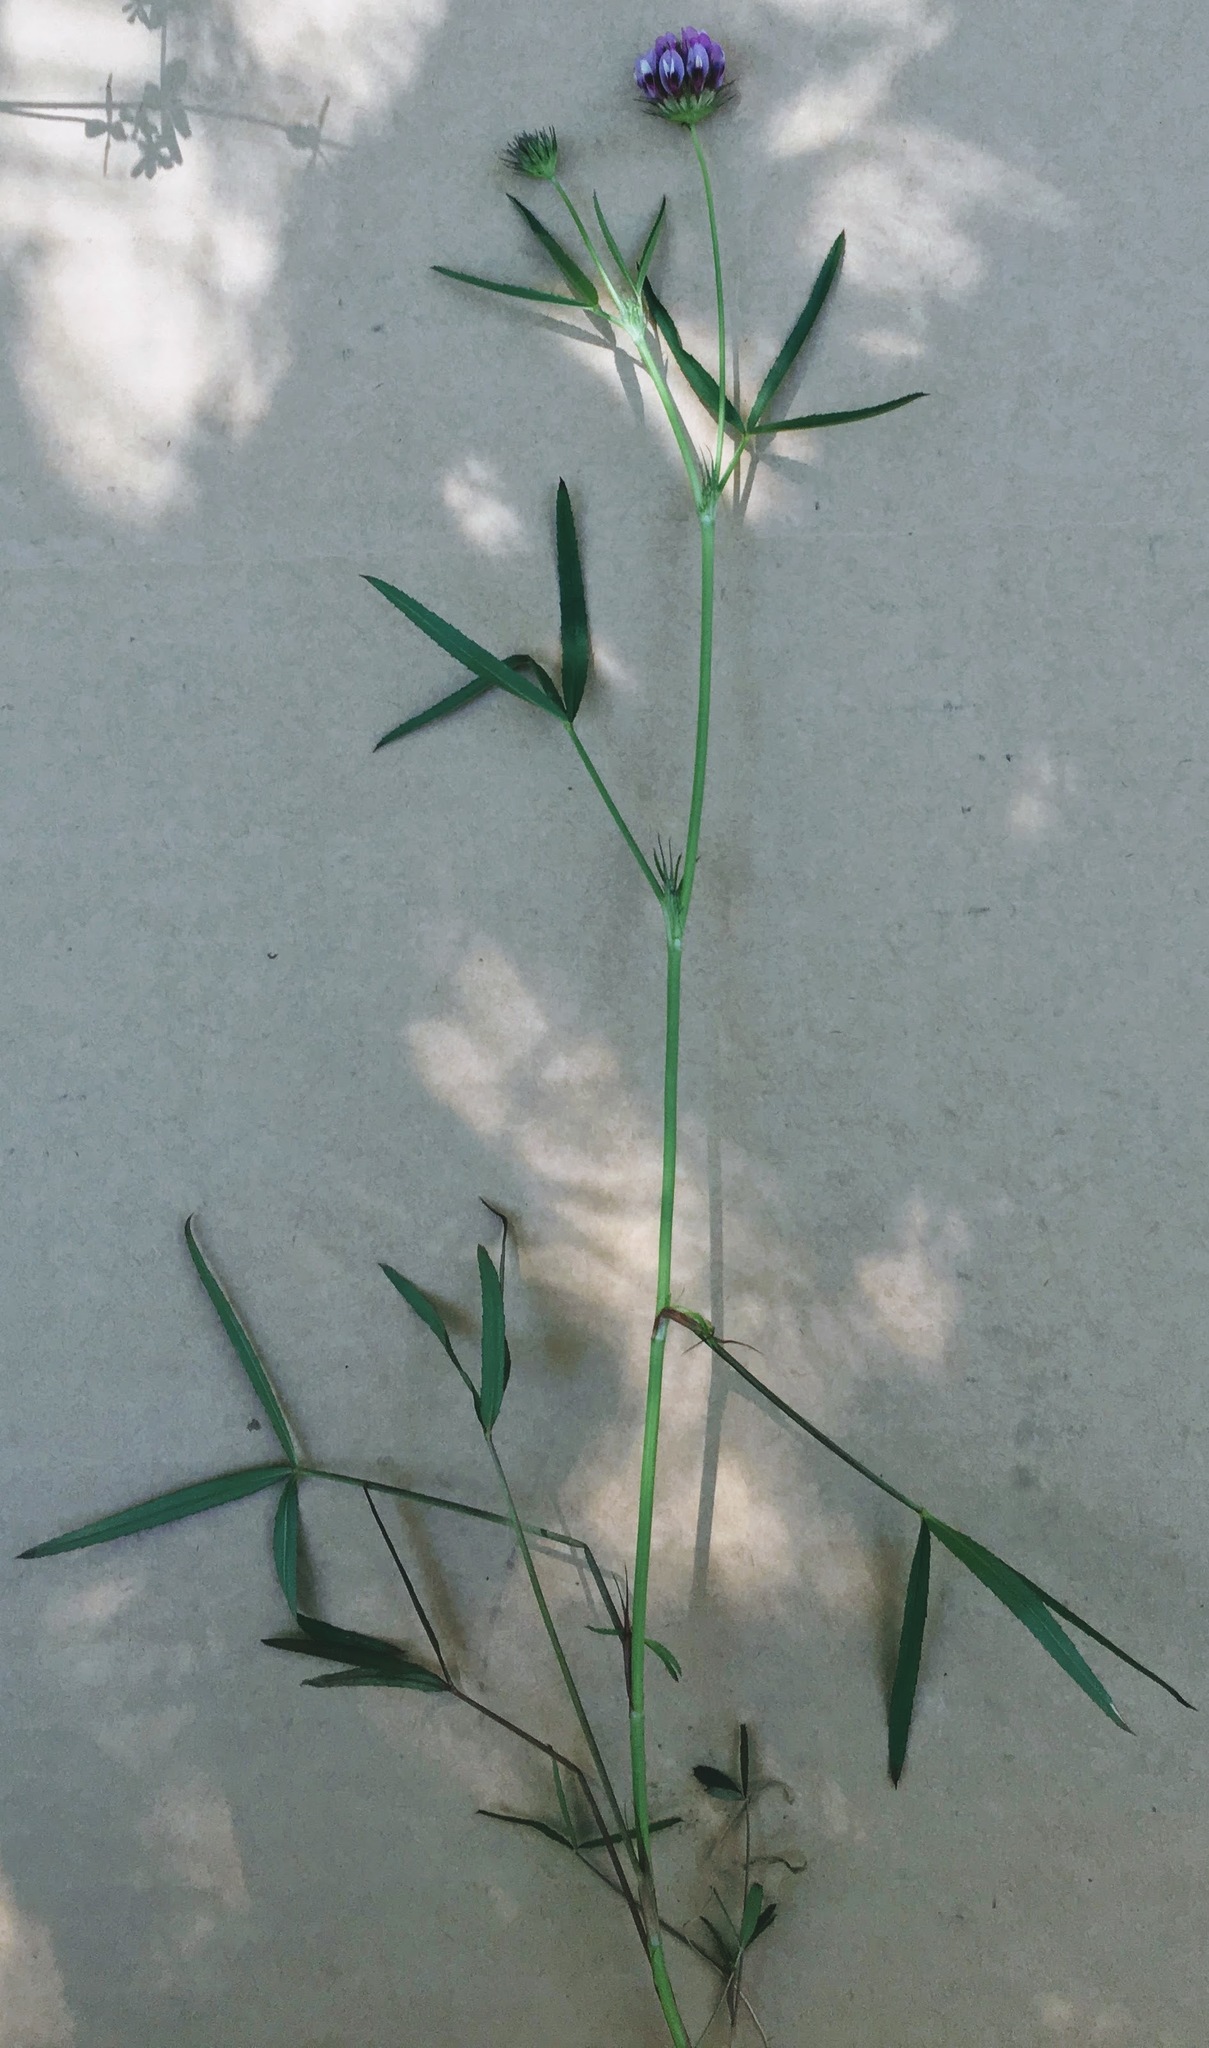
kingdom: Plantae
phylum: Tracheophyta
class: Magnoliopsida
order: Fabales
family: Fabaceae
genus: Trifolium
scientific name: Trifolium willdenovii
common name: Tomcat clover
